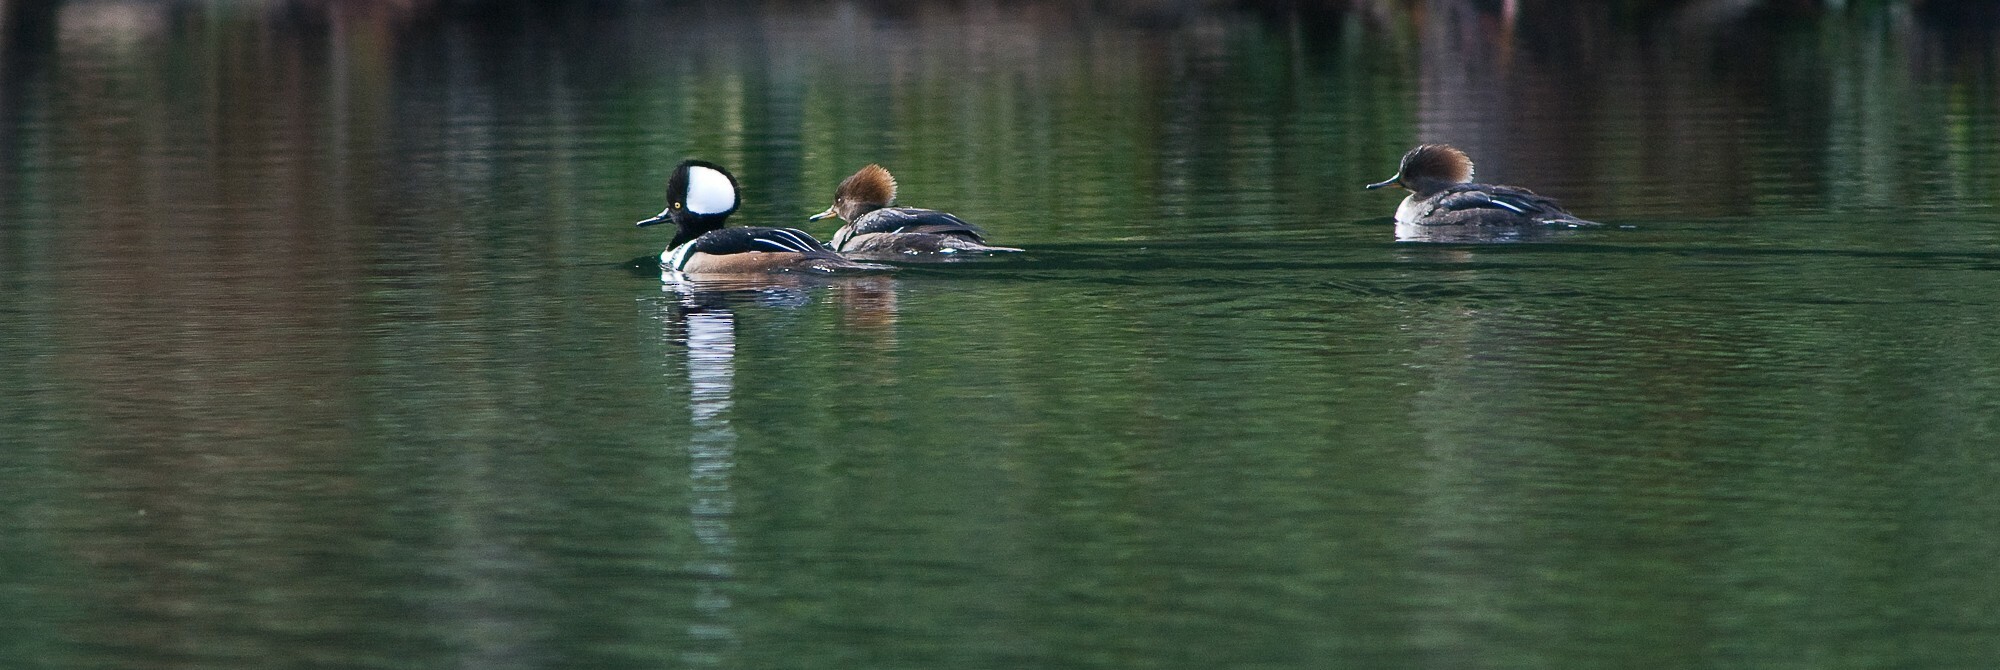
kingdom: Animalia
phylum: Chordata
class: Aves
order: Anseriformes
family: Anatidae
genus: Lophodytes
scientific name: Lophodytes cucullatus
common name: Hooded merganser
